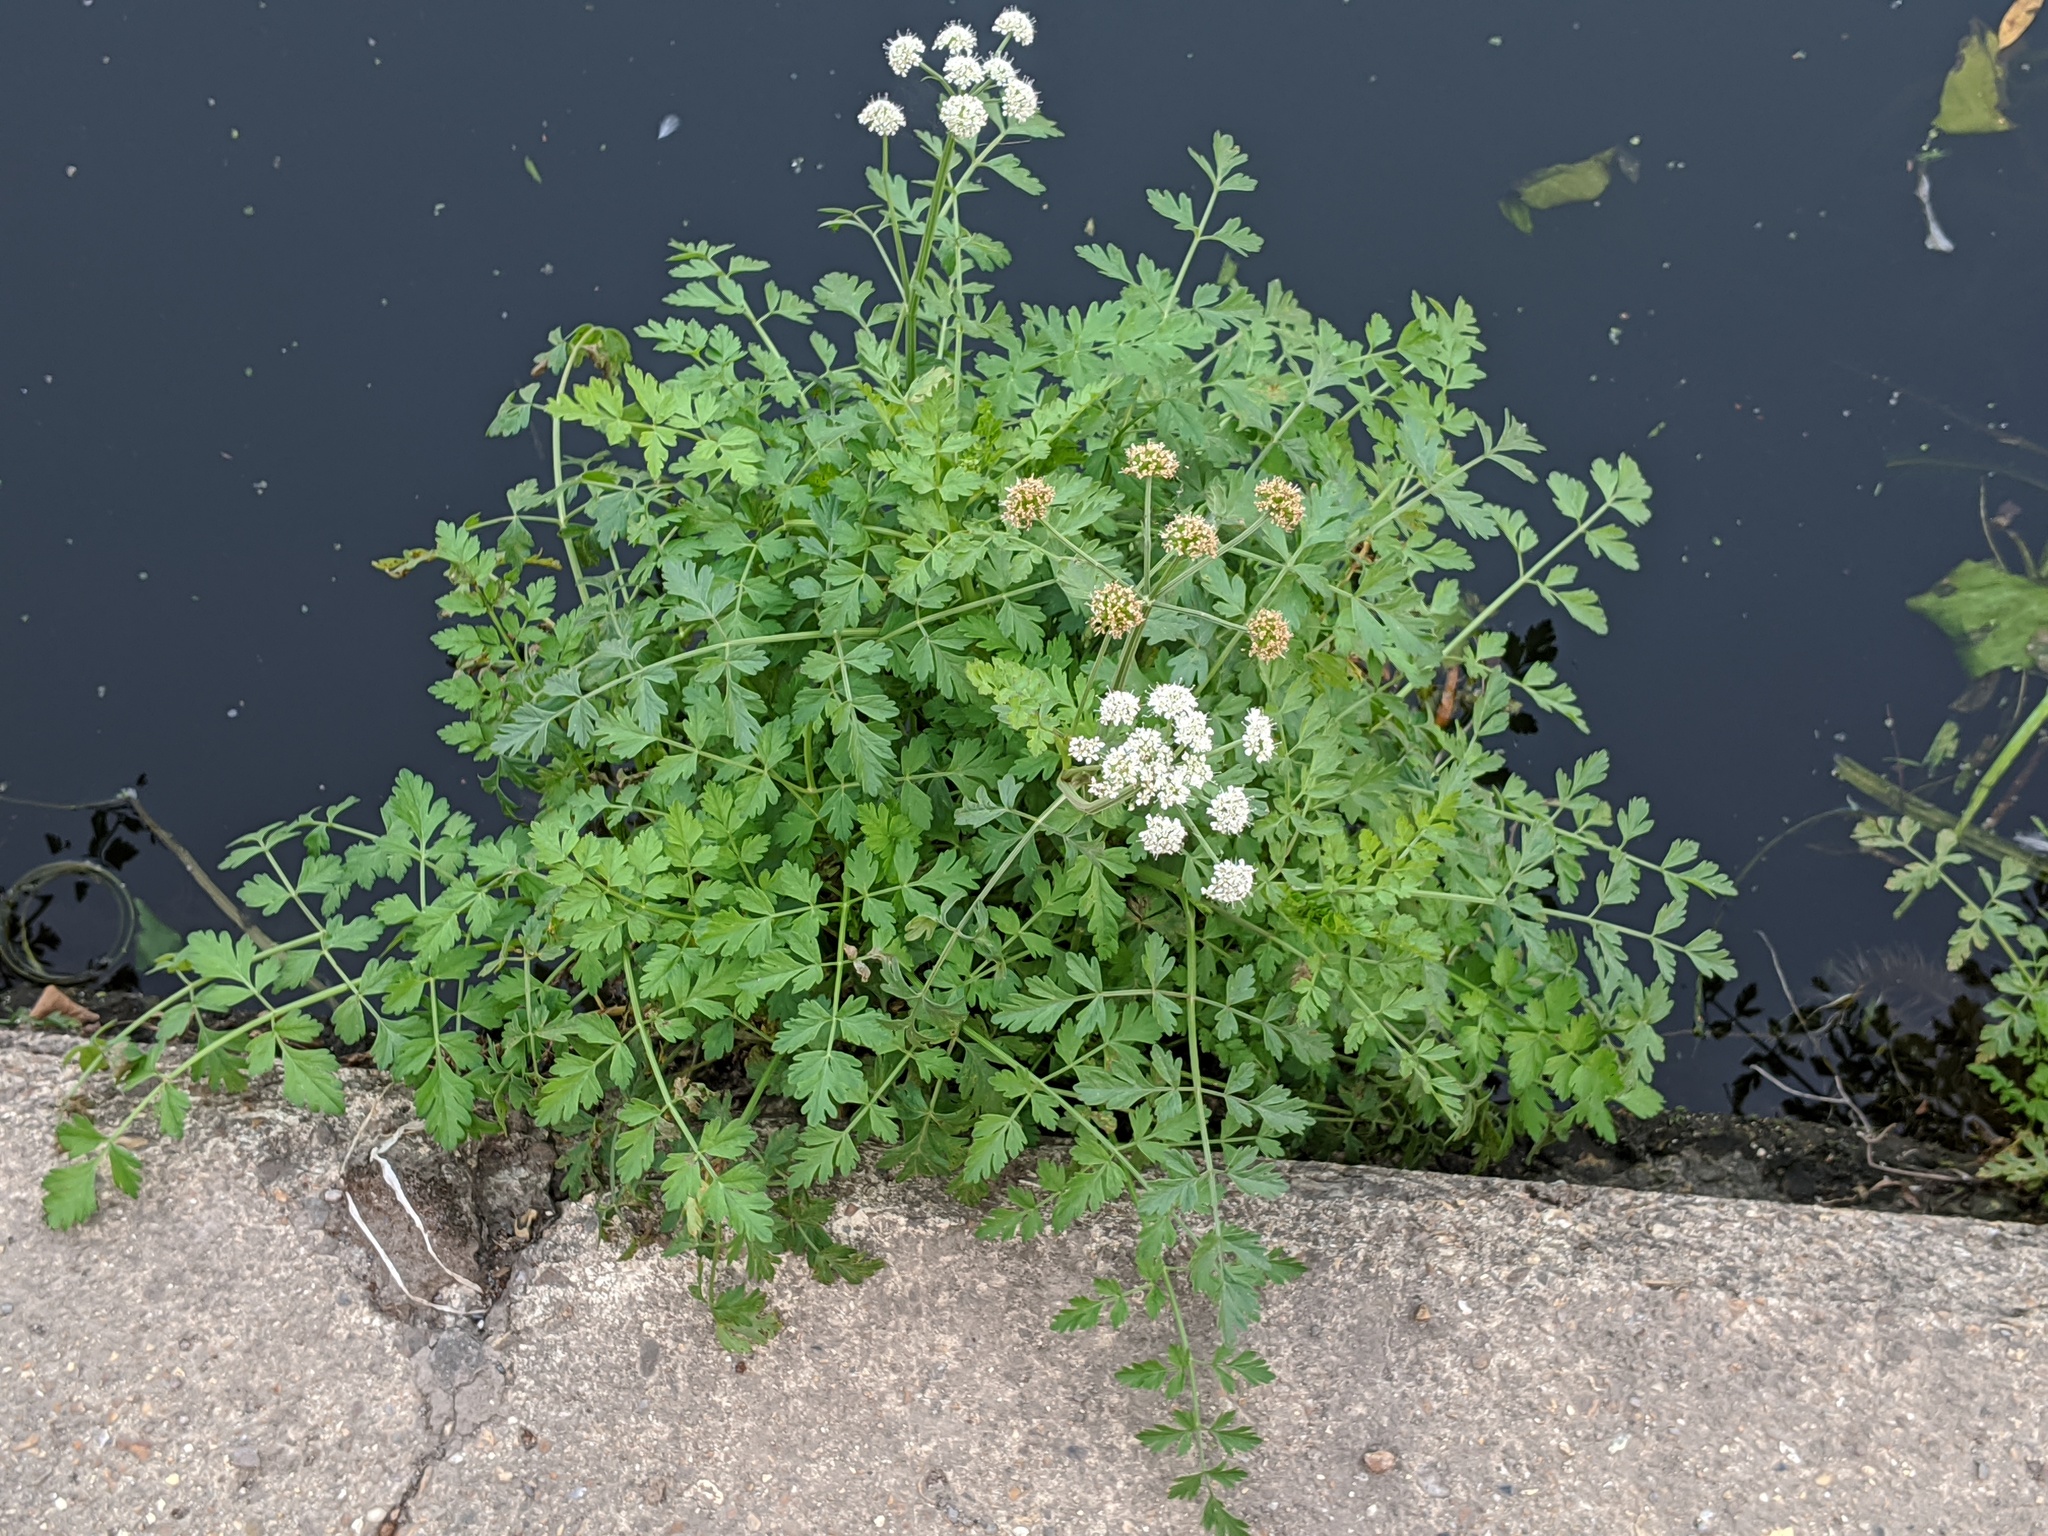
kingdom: Plantae
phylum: Tracheophyta
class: Magnoliopsida
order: Apiales
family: Apiaceae
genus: Oenanthe
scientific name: Oenanthe crocata
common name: Hemlock water-dropwort
